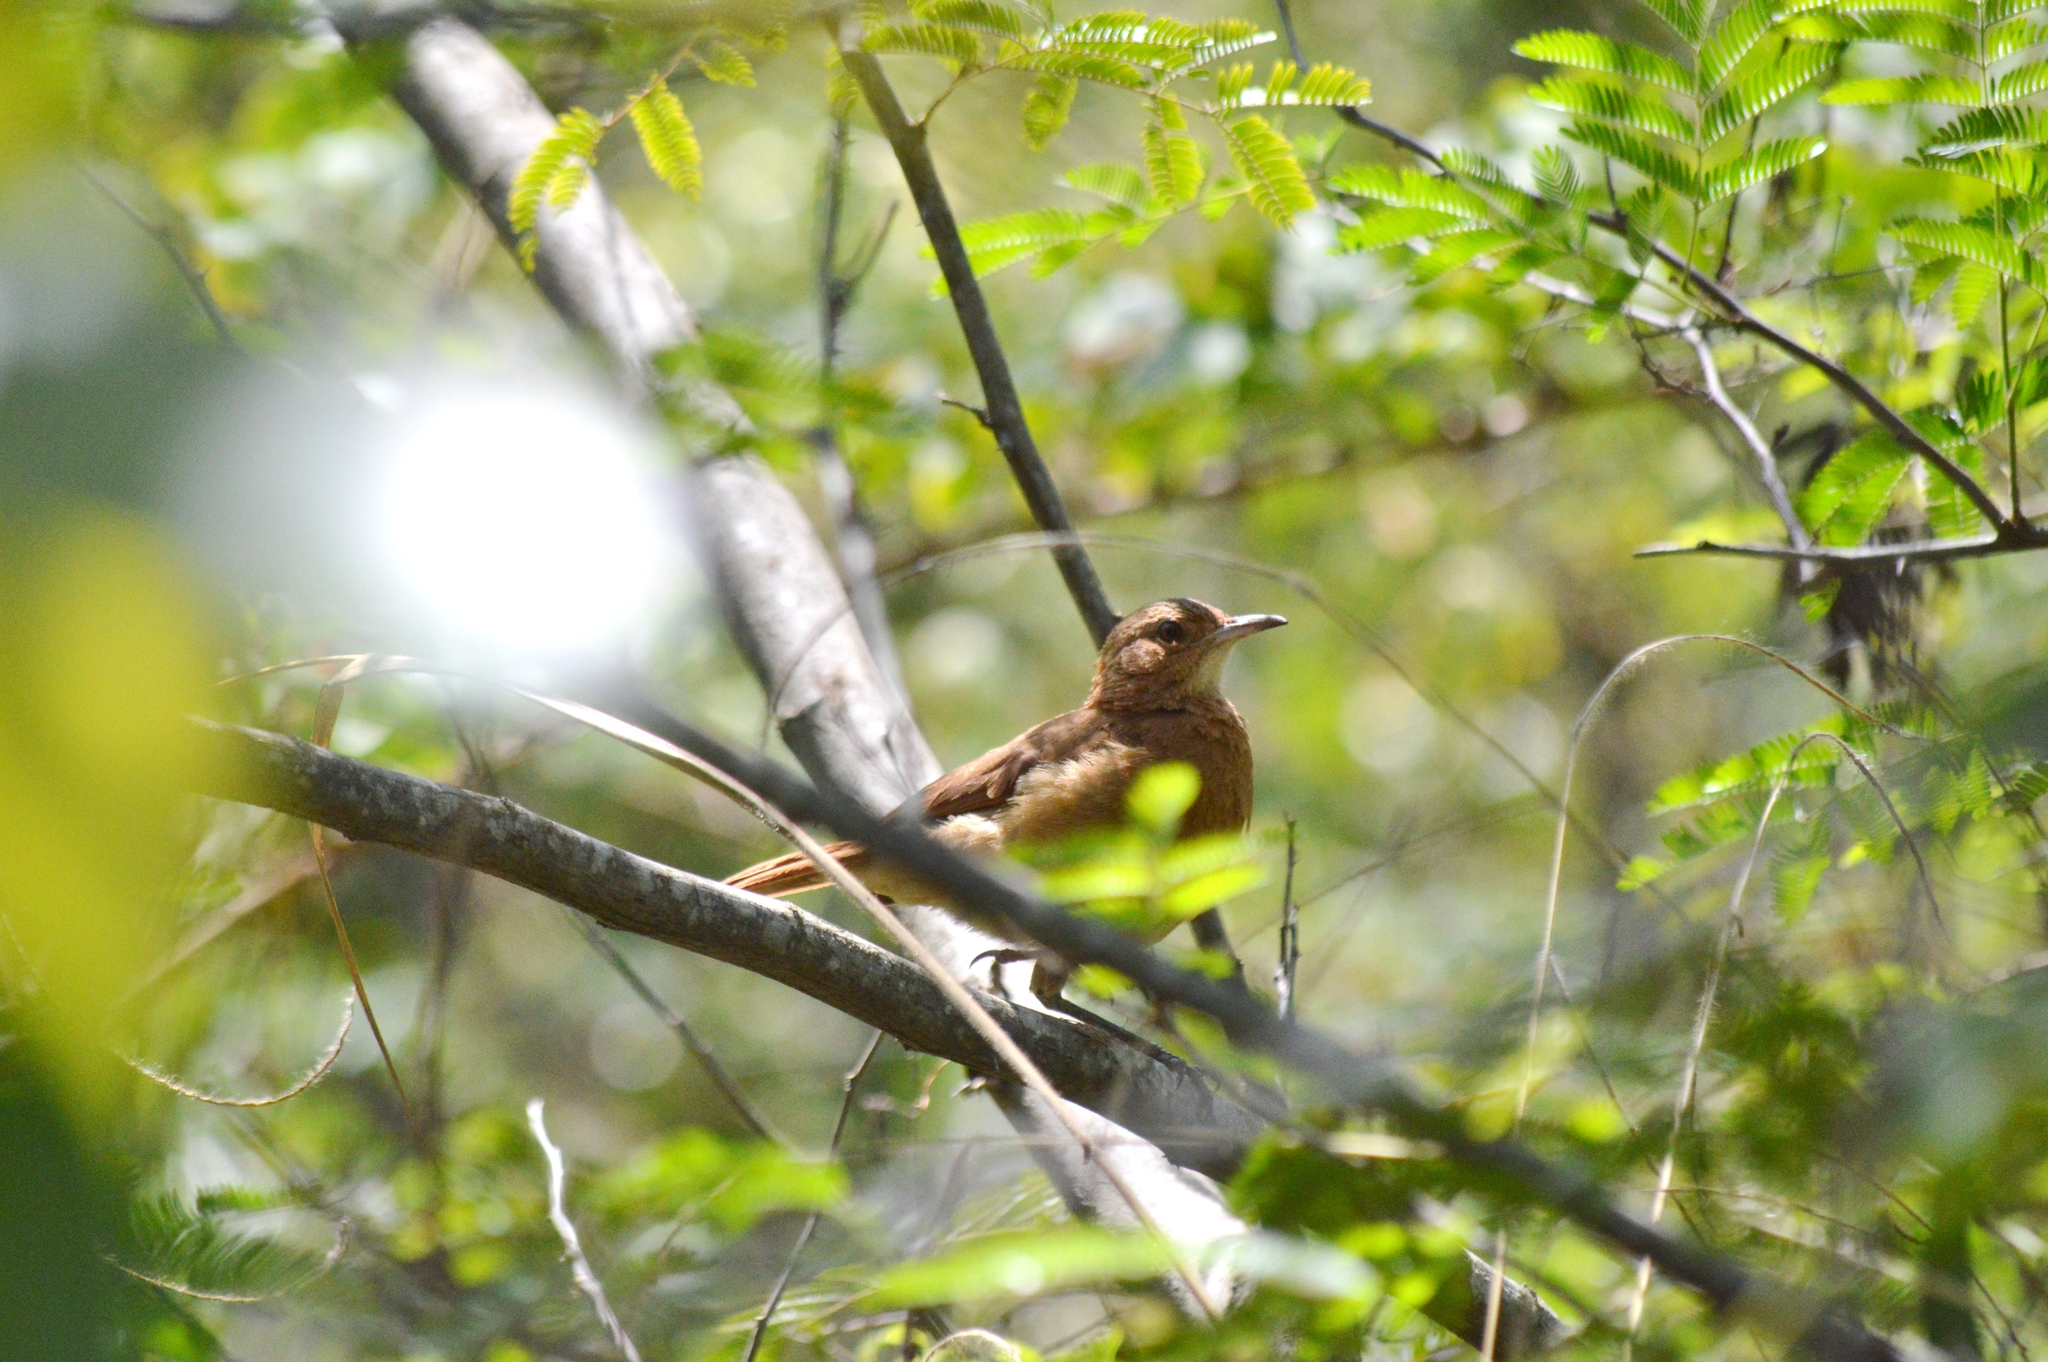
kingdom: Animalia
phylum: Chordata
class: Aves
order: Passeriformes
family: Furnariidae
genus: Furnarius
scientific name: Furnarius rufus
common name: Rufous hornero
